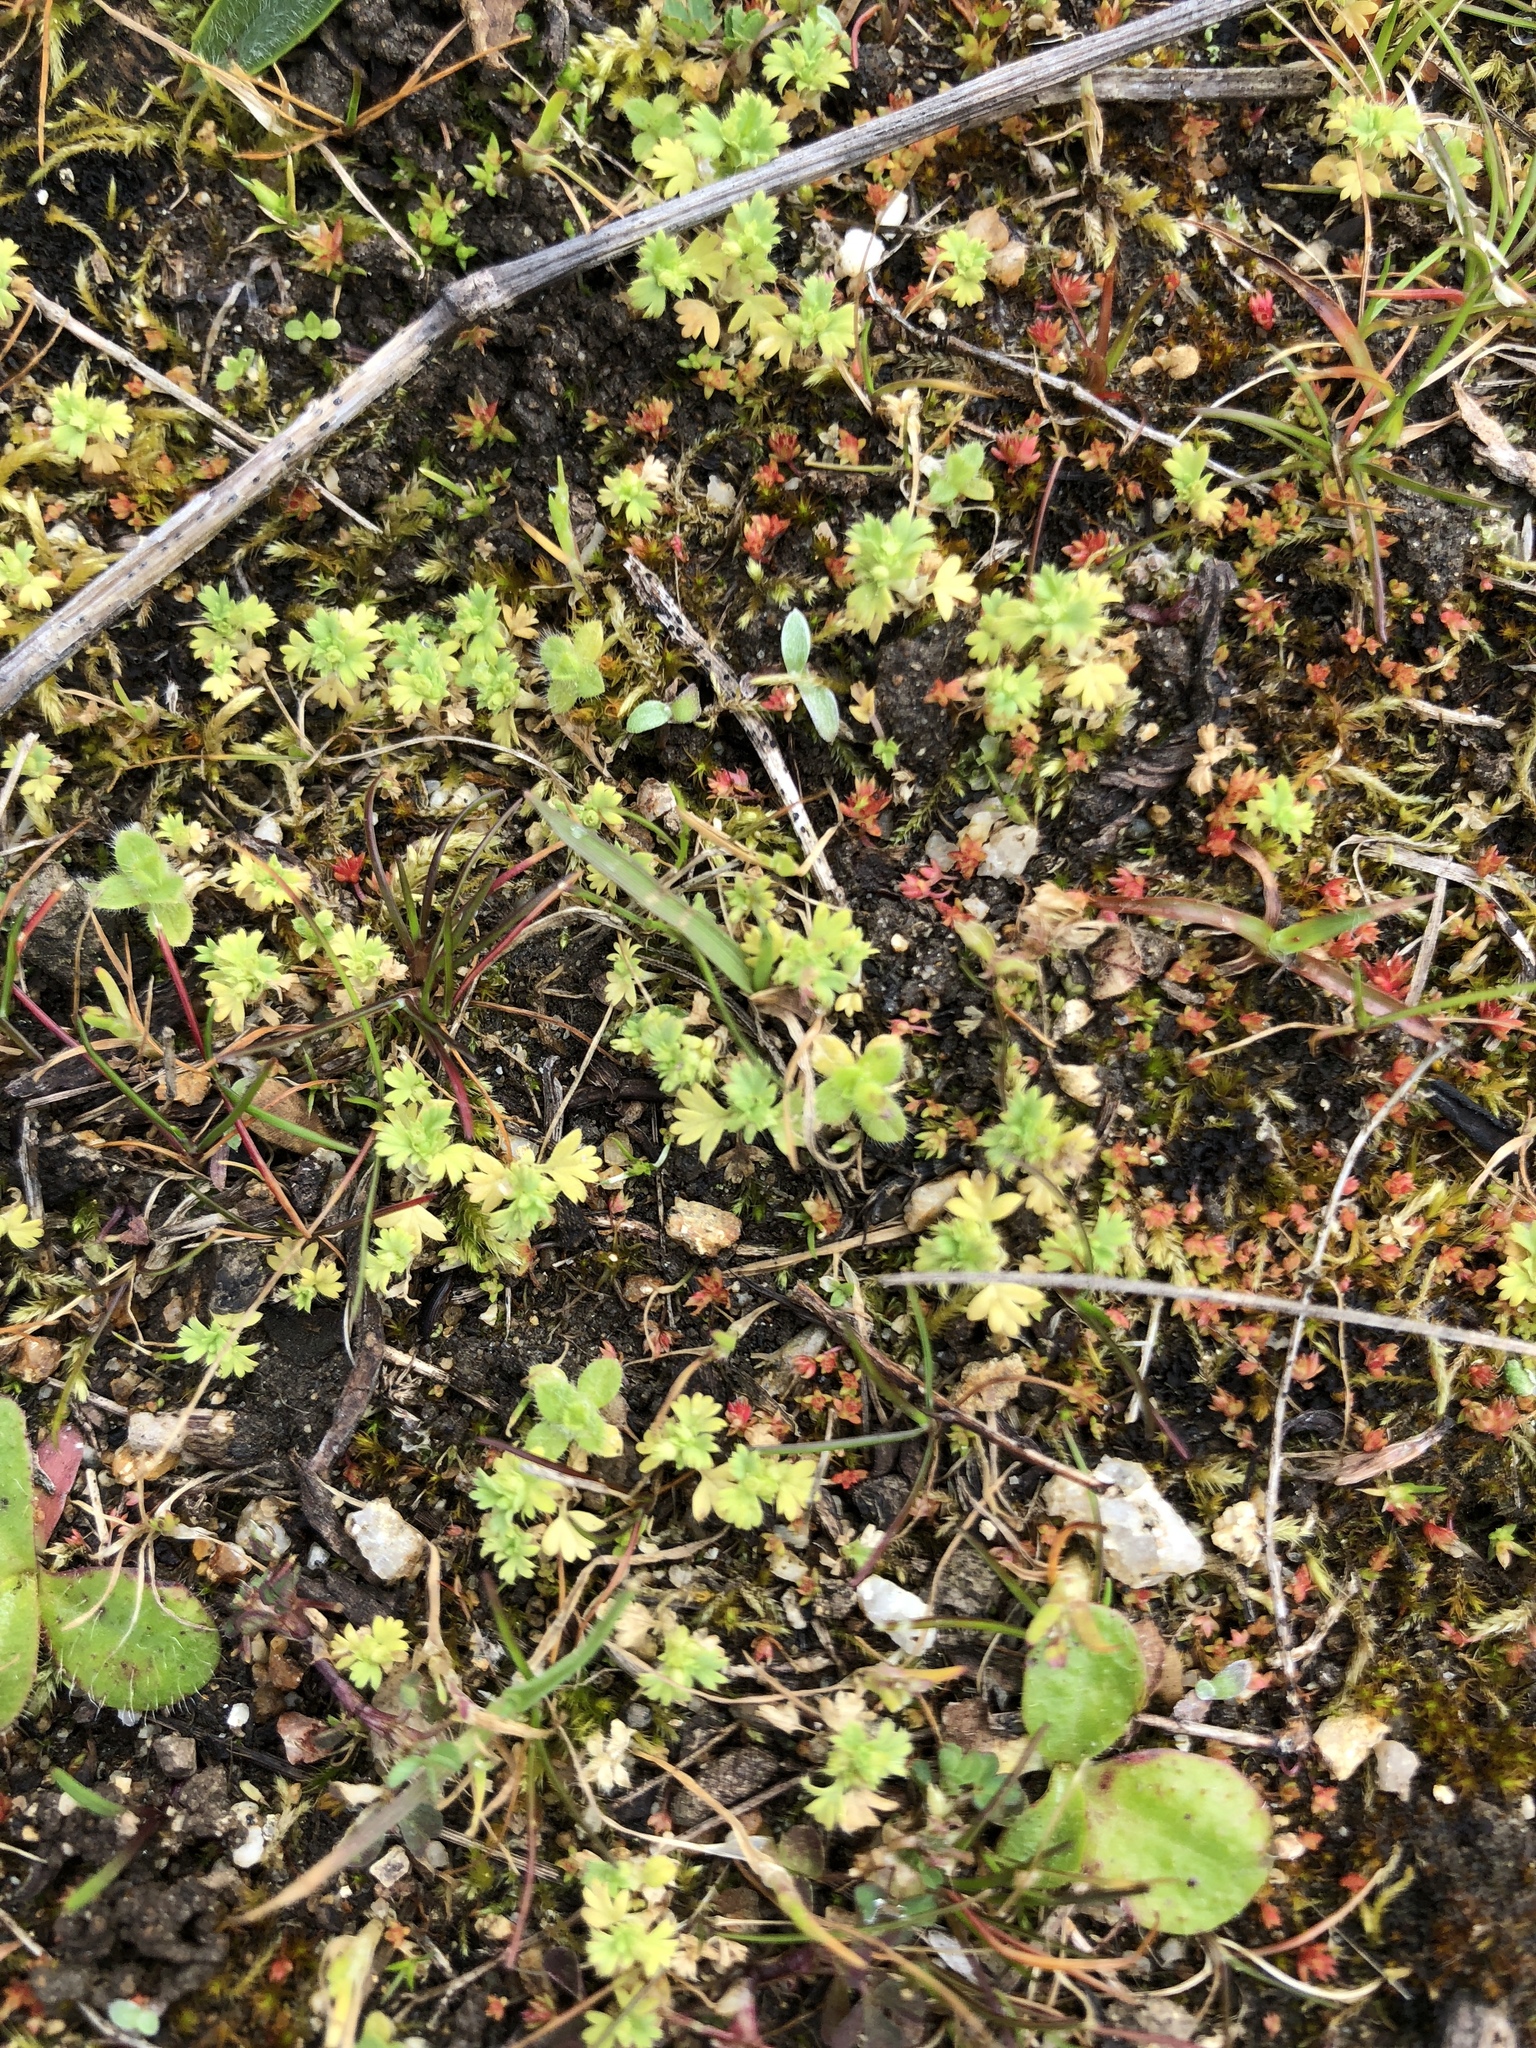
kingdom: Plantae
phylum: Tracheophyta
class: Magnoliopsida
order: Rosales
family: Rosaceae
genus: Aphanes
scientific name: Aphanes arvensis
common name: Parsley-piert
